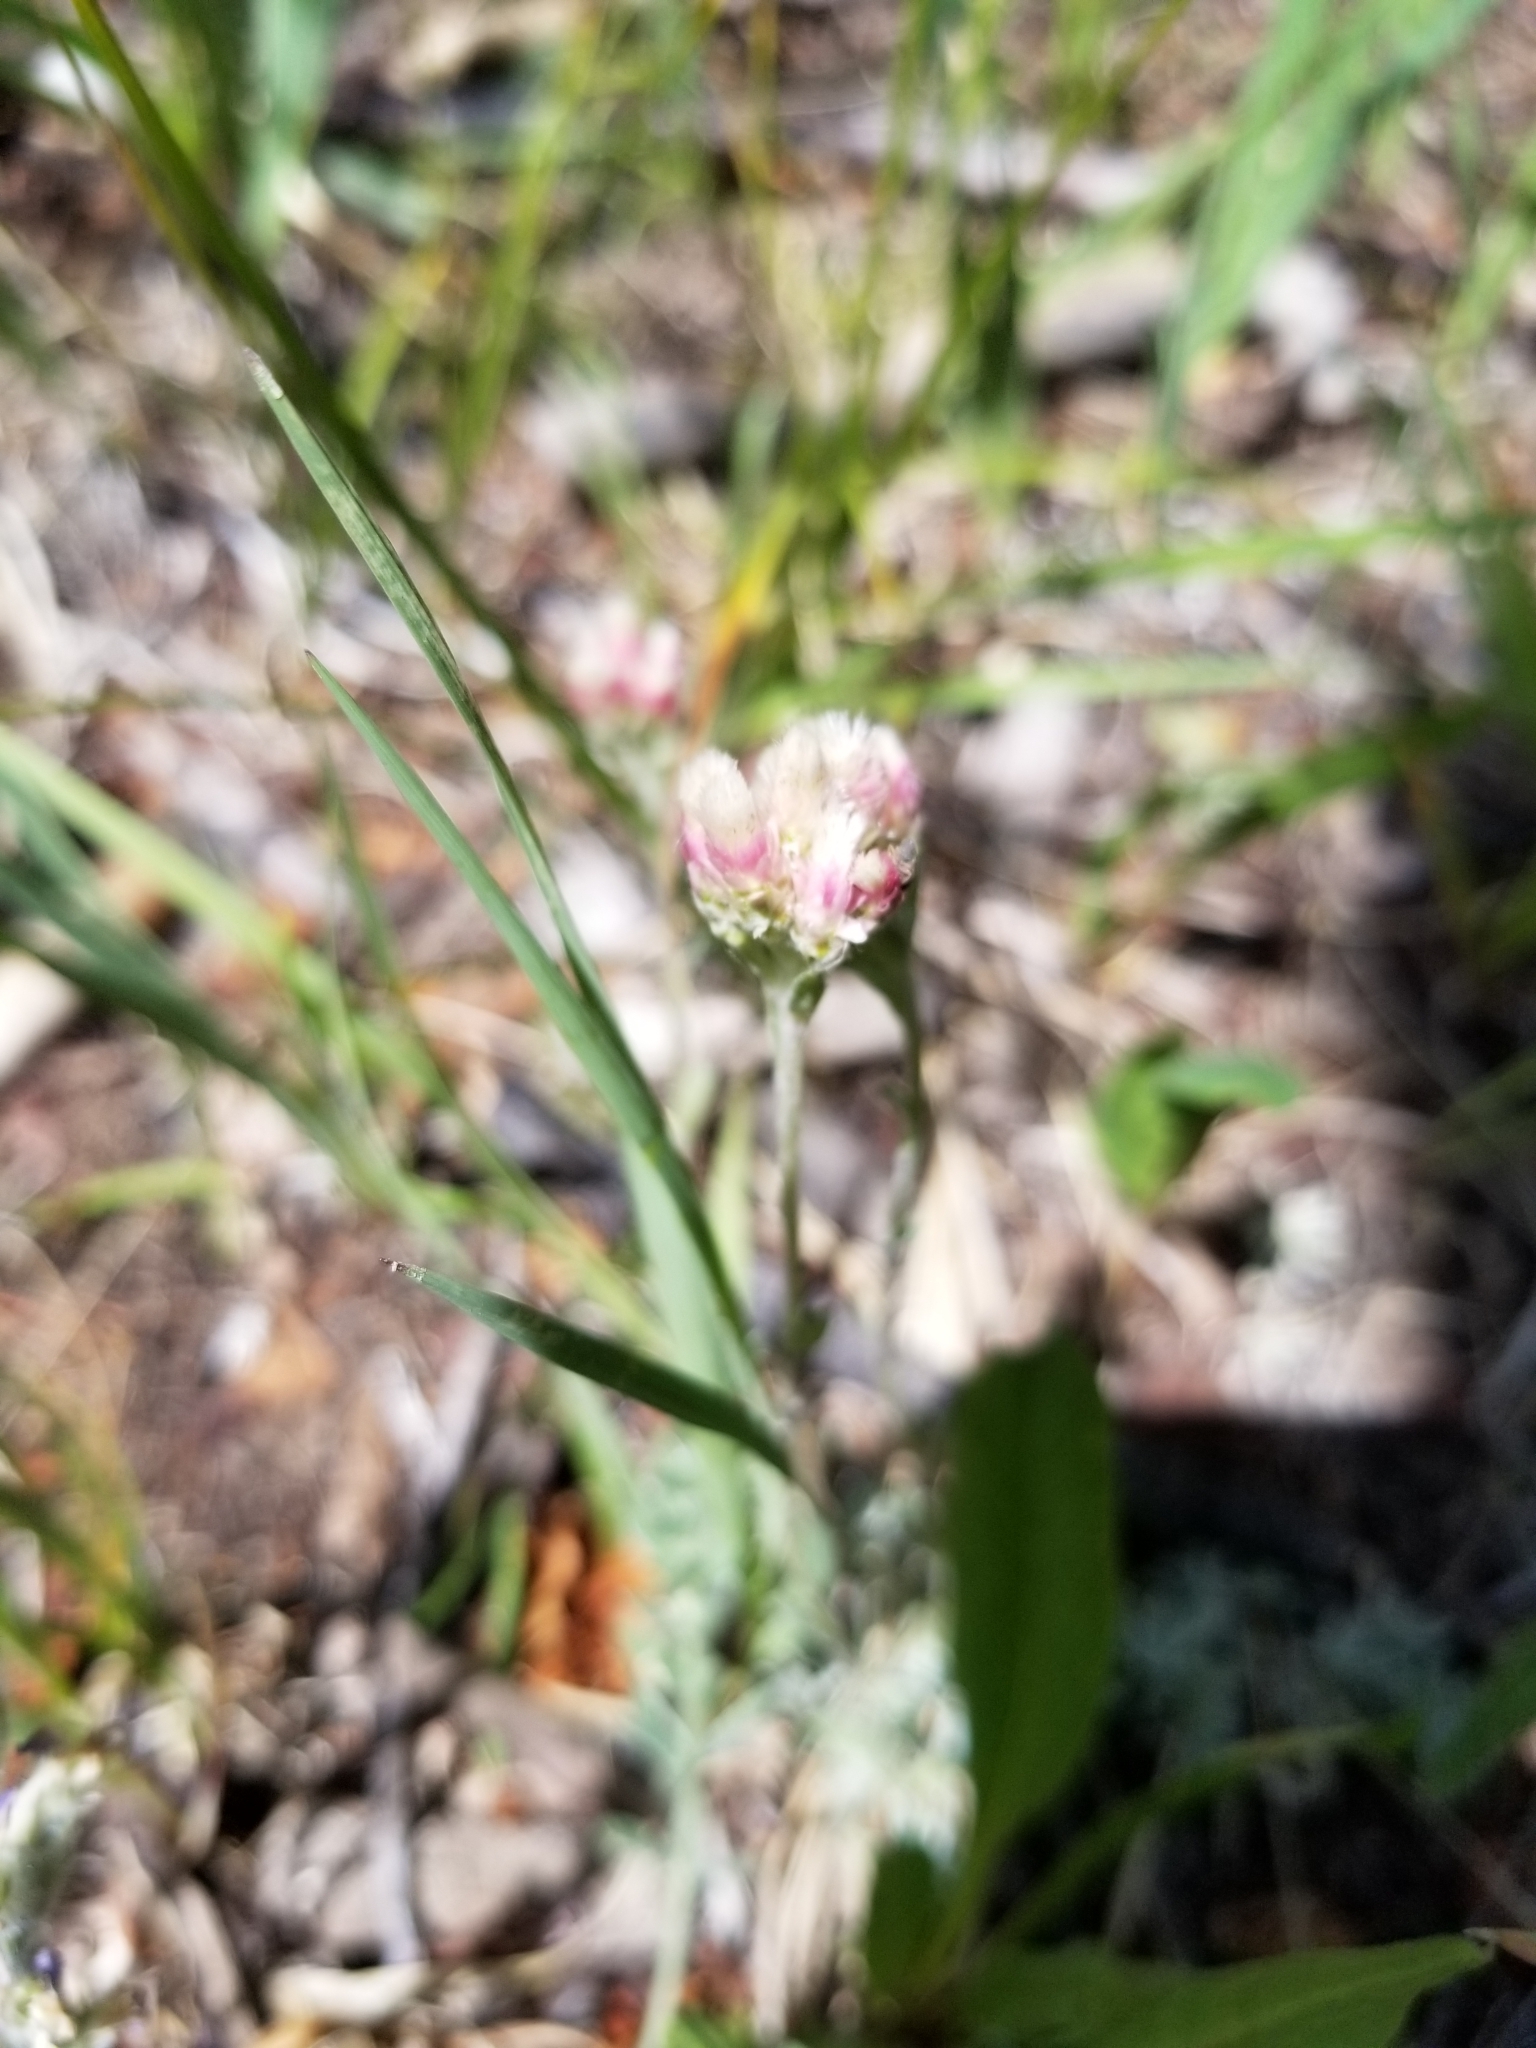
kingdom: Plantae
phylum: Tracheophyta
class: Magnoliopsida
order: Asterales
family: Asteraceae
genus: Antennaria
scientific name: Antennaria rosea
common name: Rosy pussytoes
